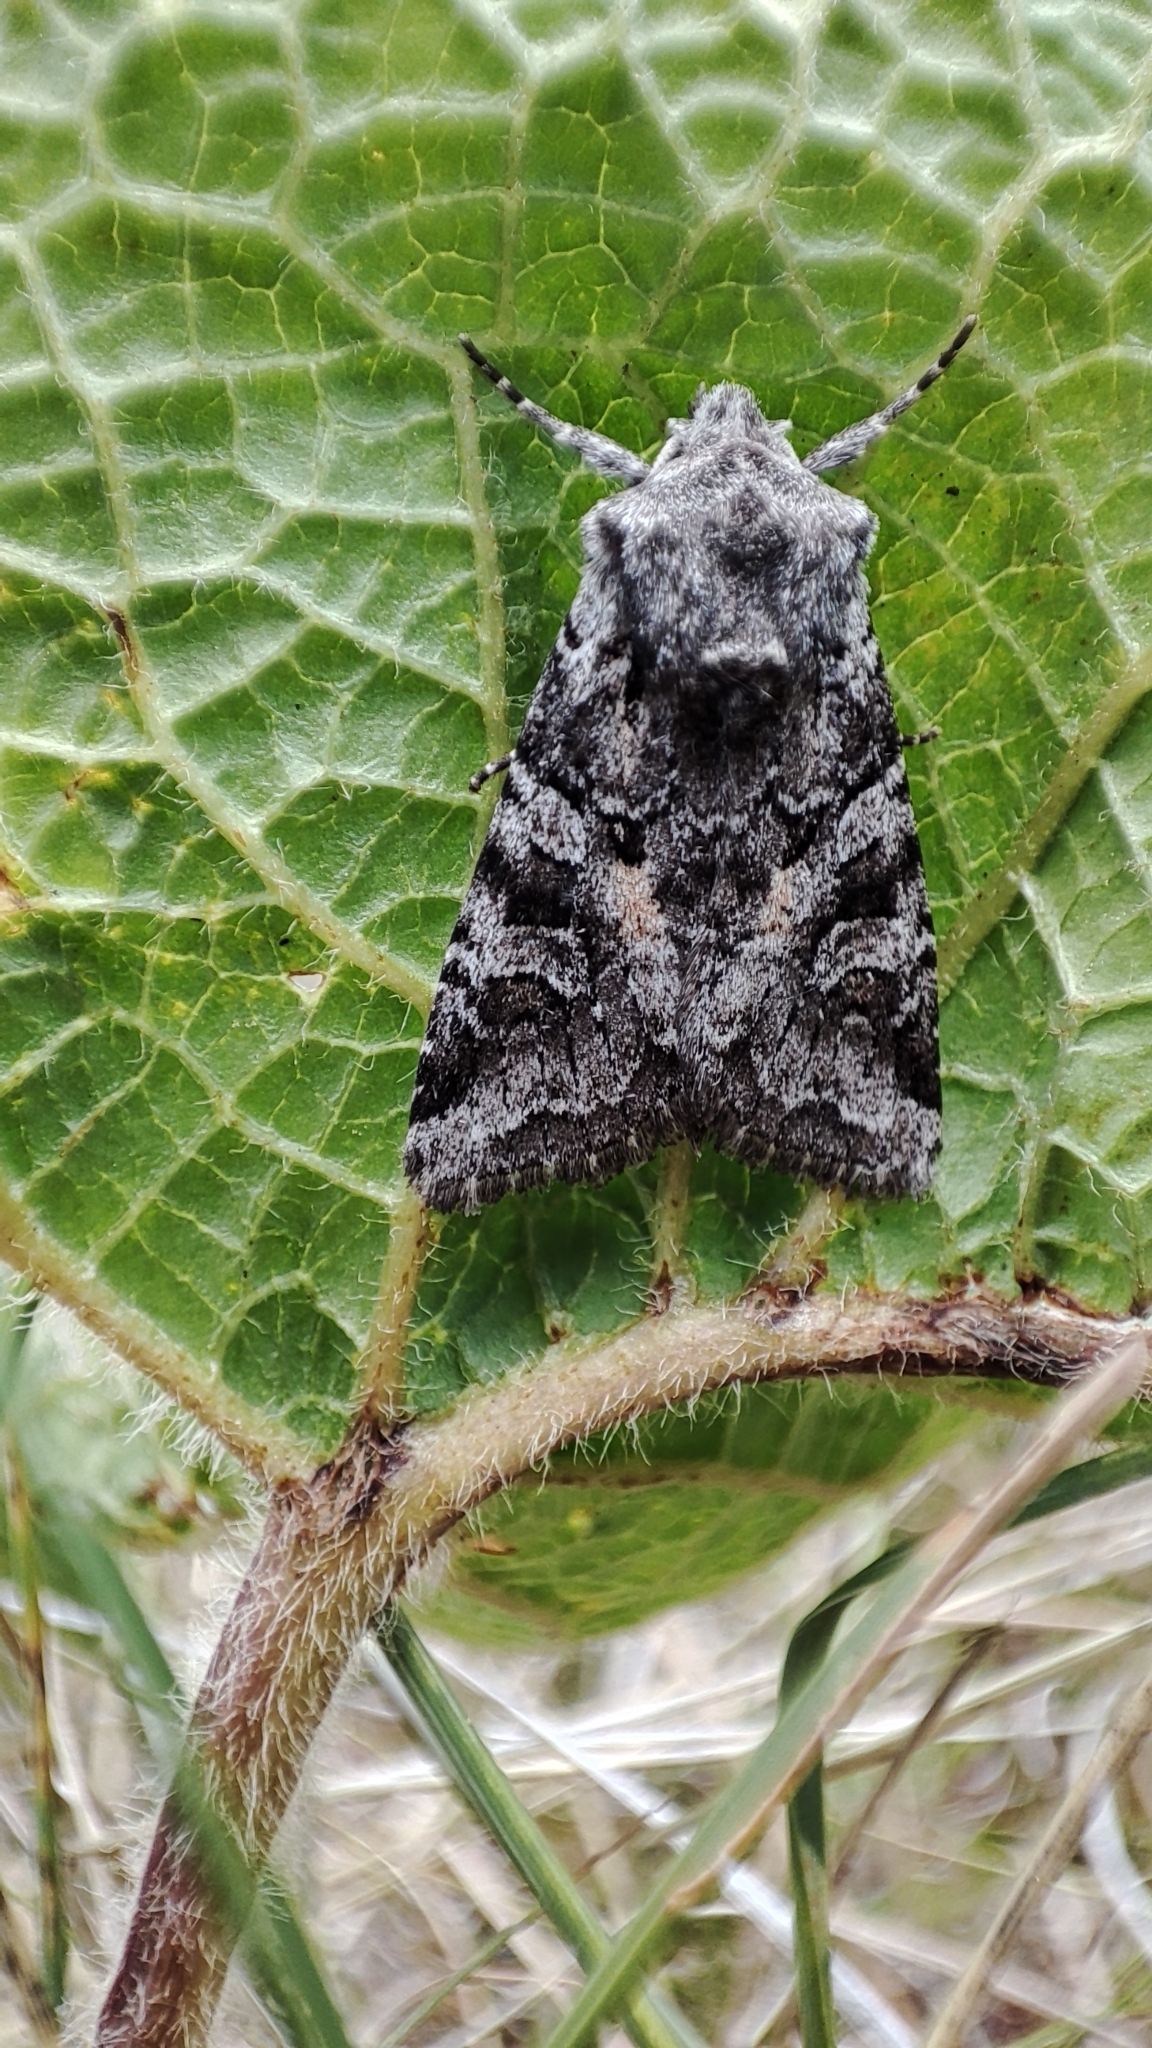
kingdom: Animalia
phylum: Arthropoda
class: Insecta
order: Lepidoptera
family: Noctuidae
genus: Lasionycta
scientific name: Lasionycta proxima
